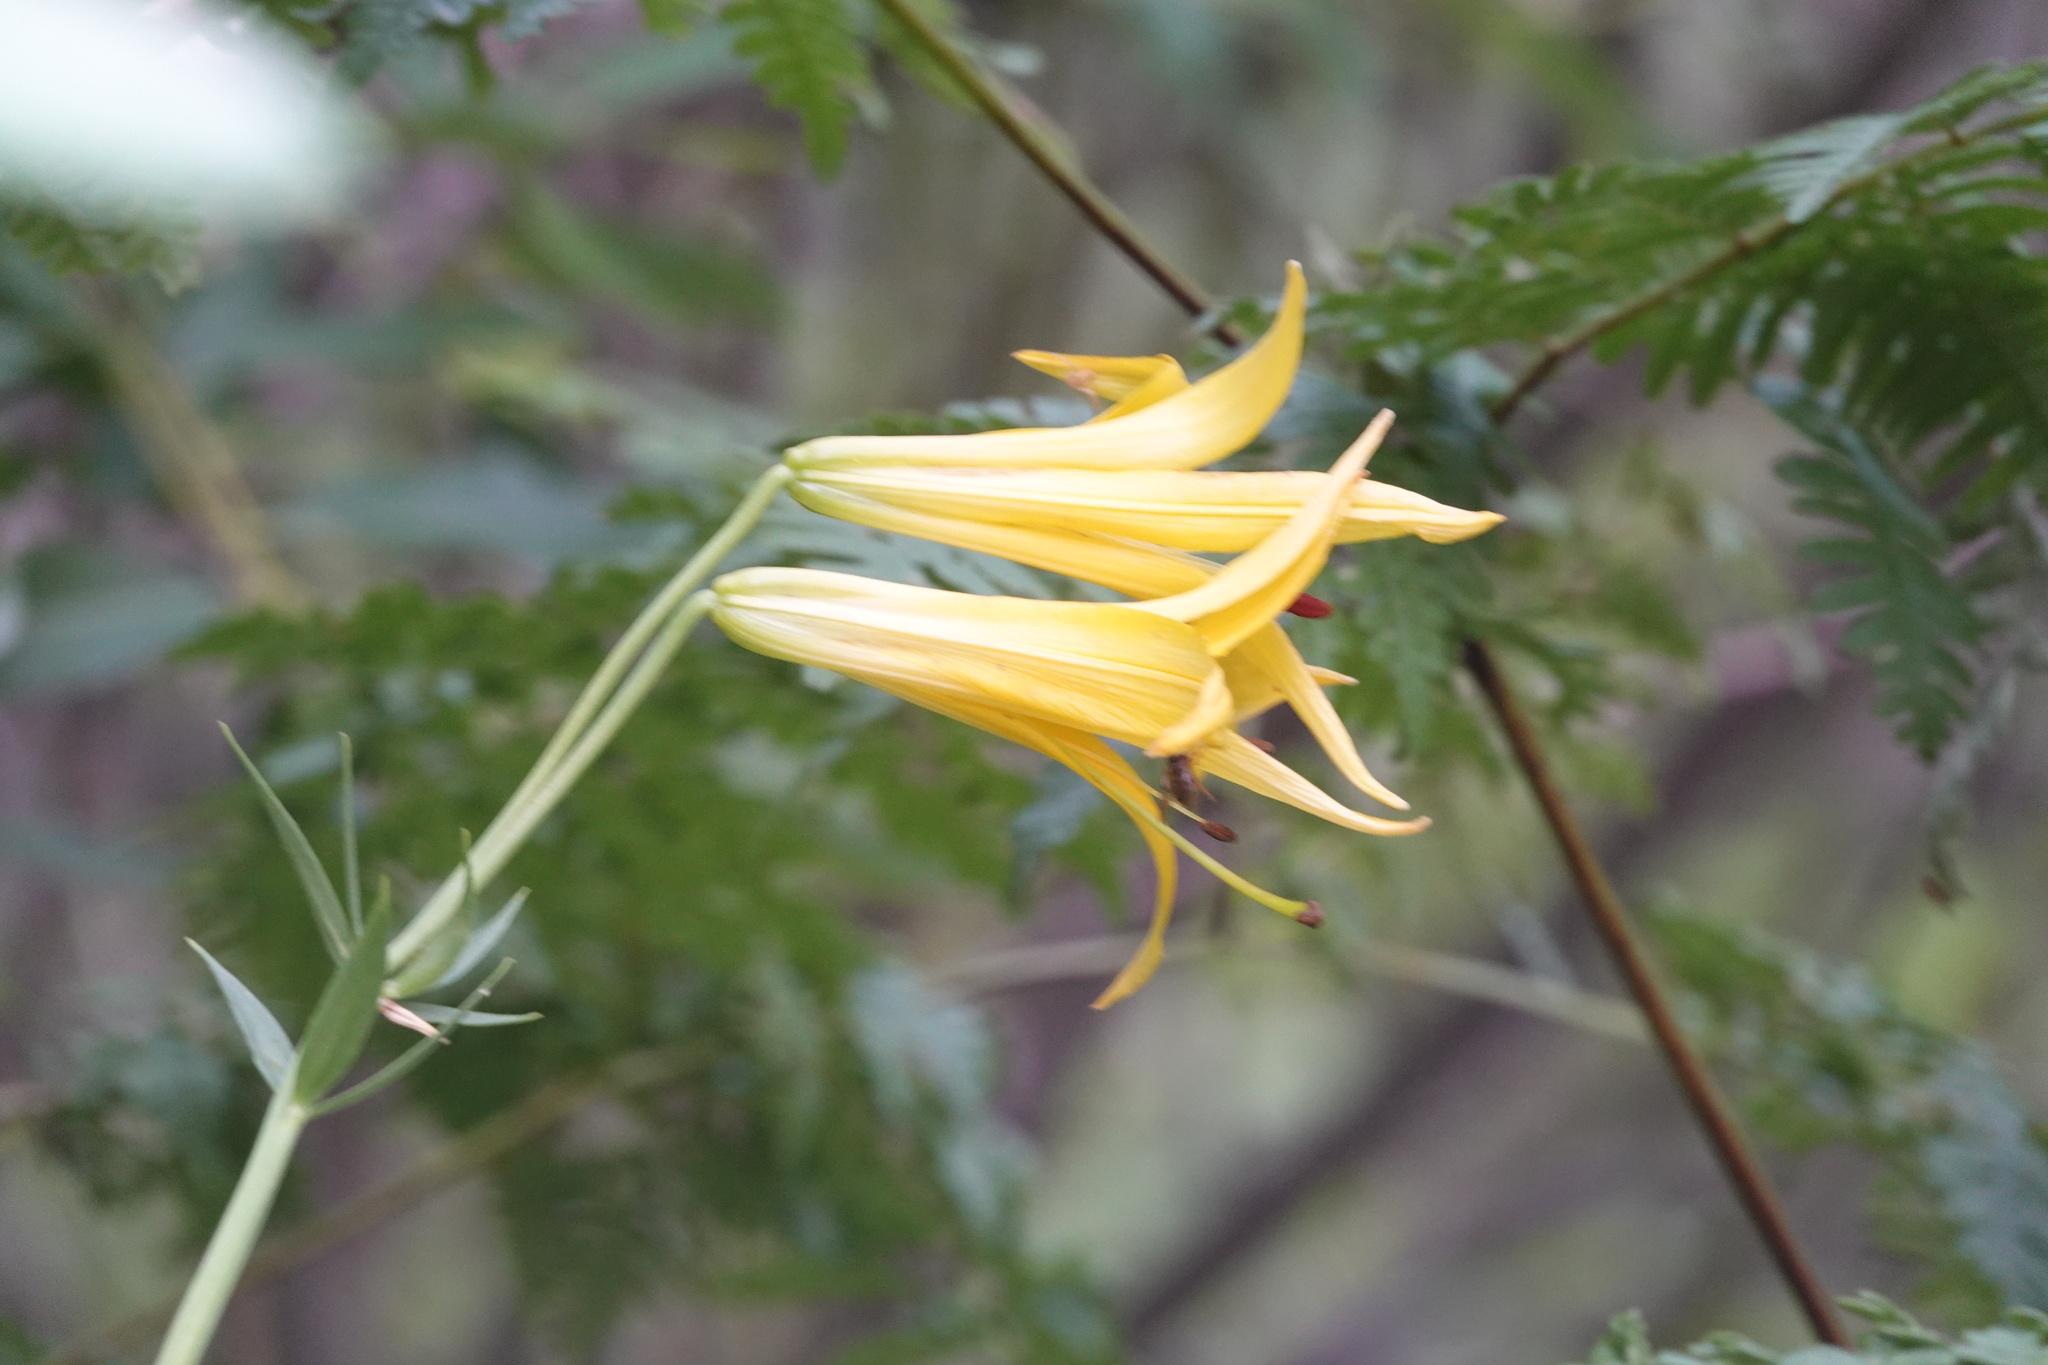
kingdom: Plantae
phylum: Tracheophyta
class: Liliopsida
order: Liliales
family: Liliaceae
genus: Lilium
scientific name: Lilium parryi
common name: Lemon lily
